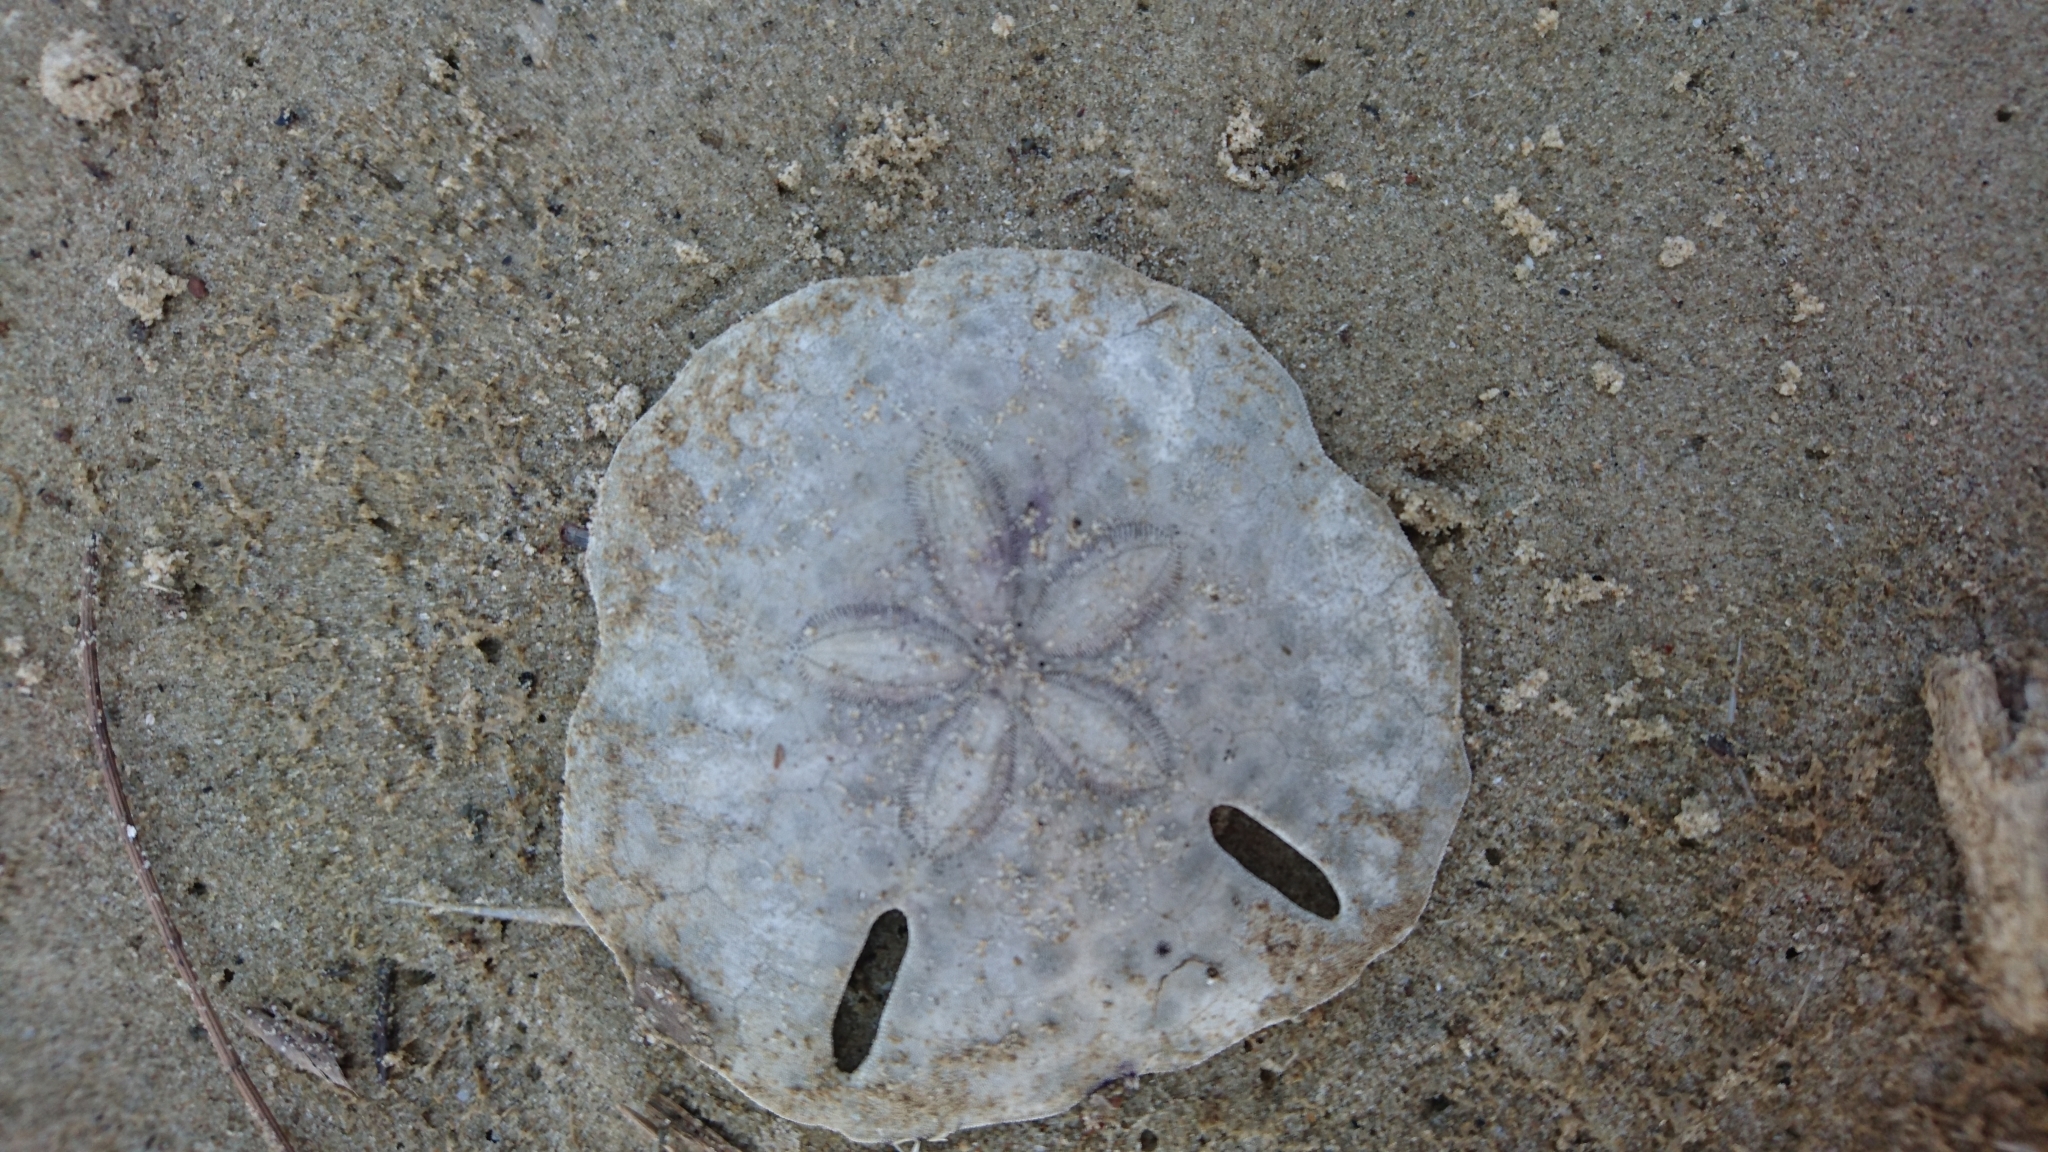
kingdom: Animalia
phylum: Echinodermata
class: Echinoidea
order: Echinolampadacea
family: Astriclypeidae
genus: Echinodiscus
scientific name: Echinodiscus
